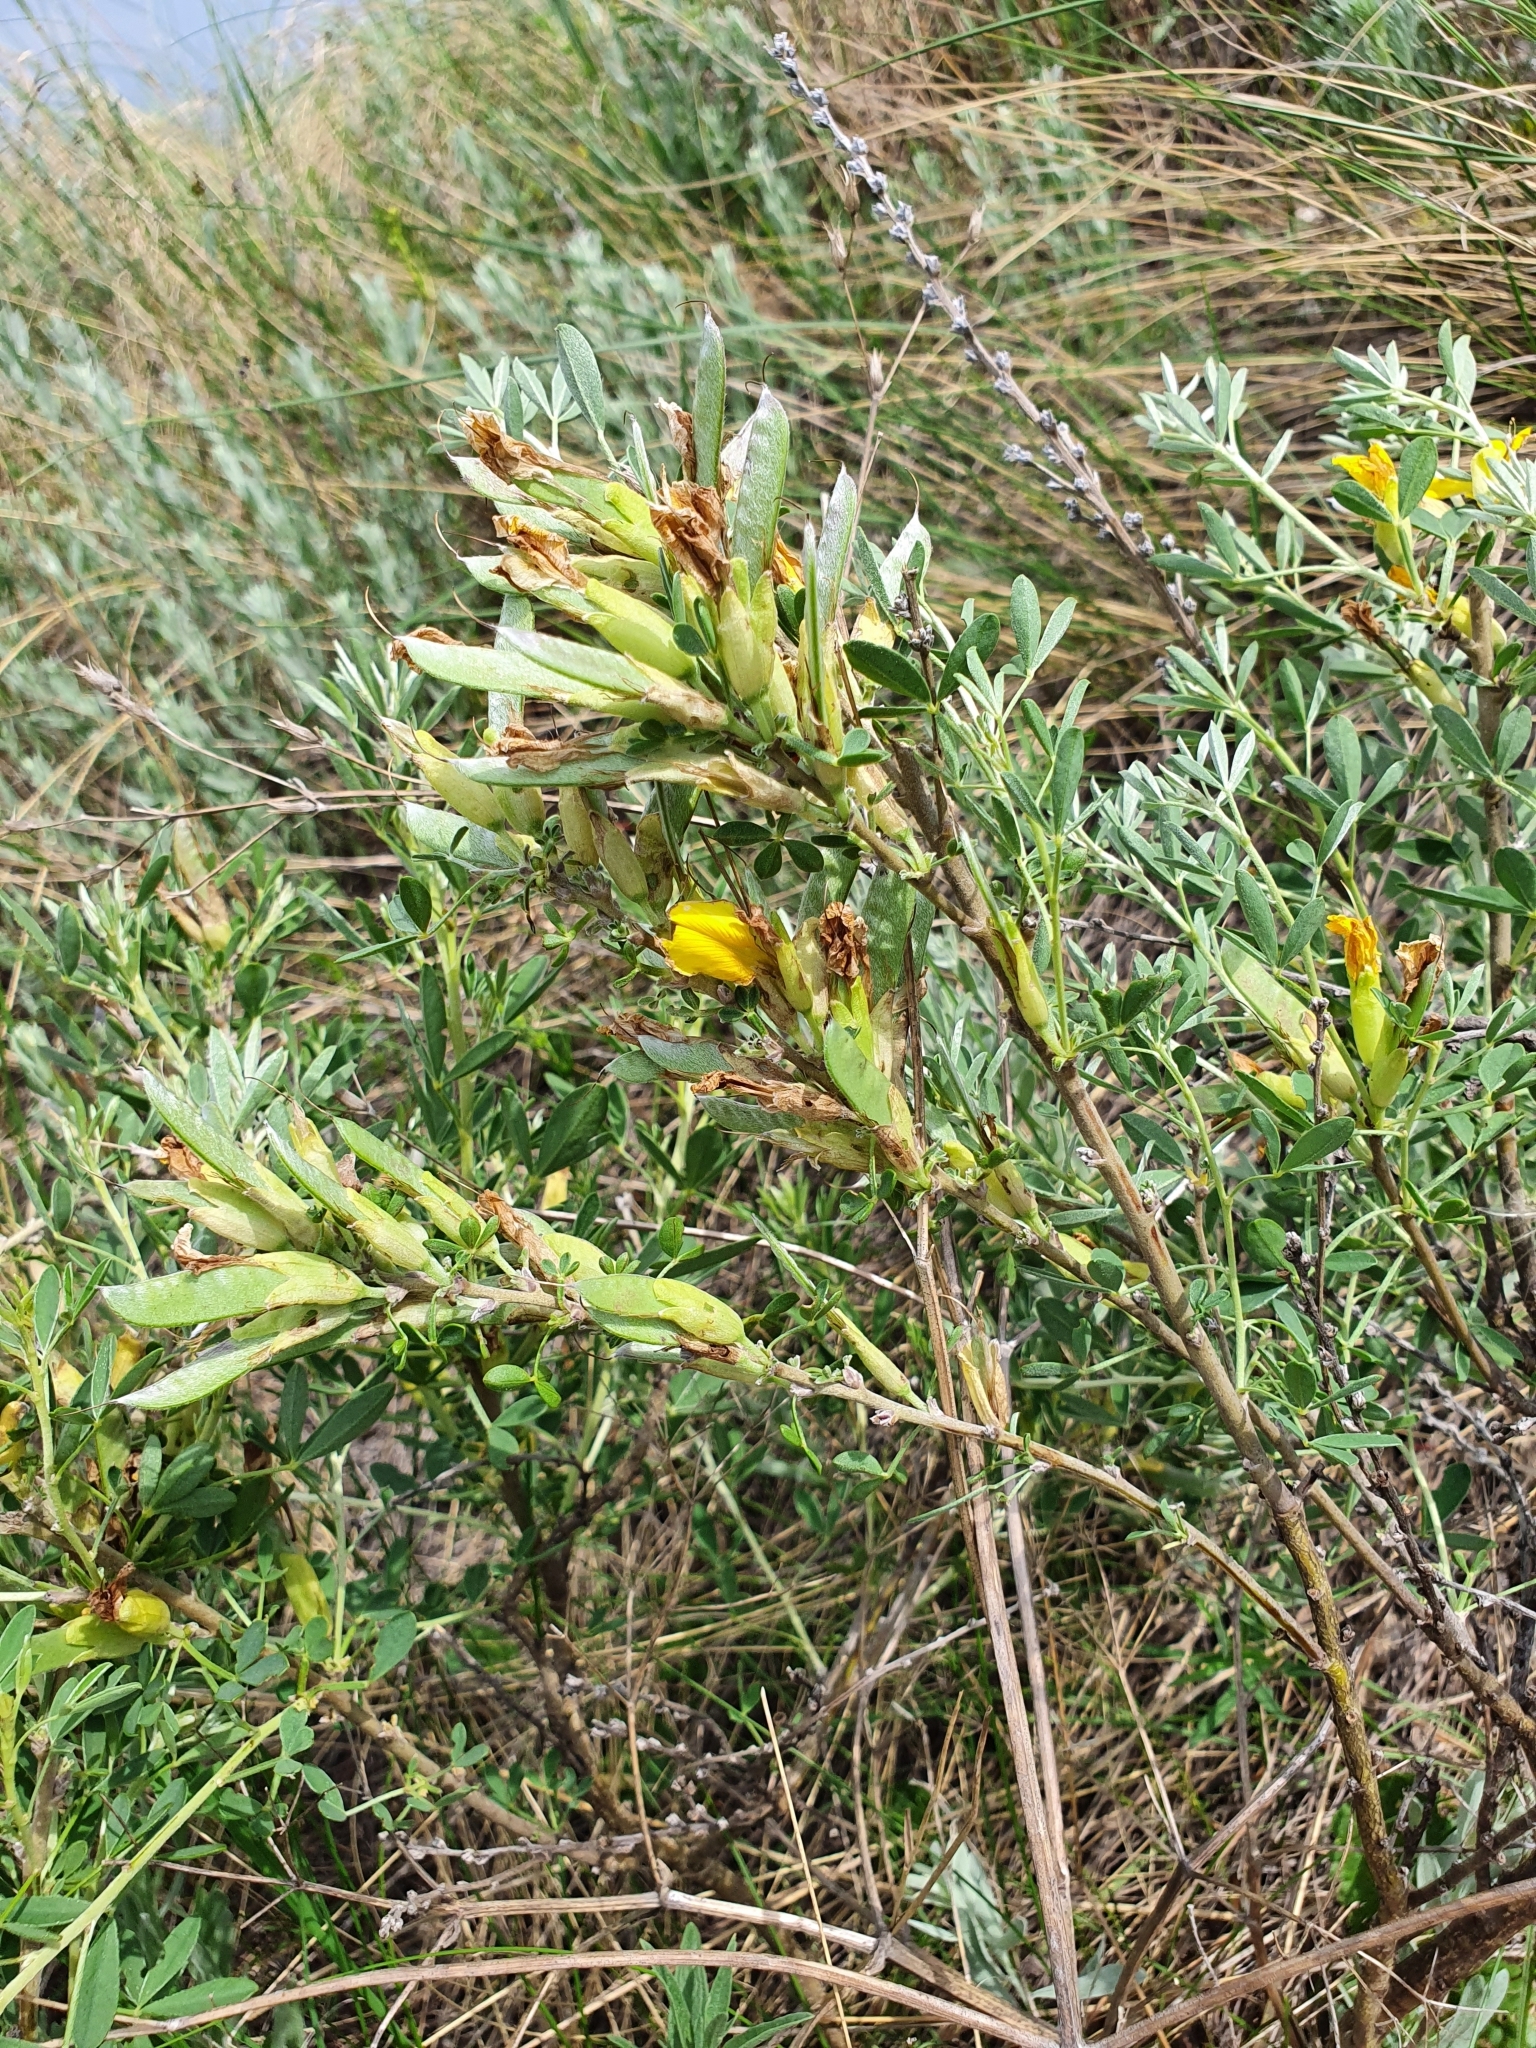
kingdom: Plantae
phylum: Tracheophyta
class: Magnoliopsida
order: Fabales
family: Fabaceae
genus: Chamaecytisus
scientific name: Chamaecytisus ruthenicus
